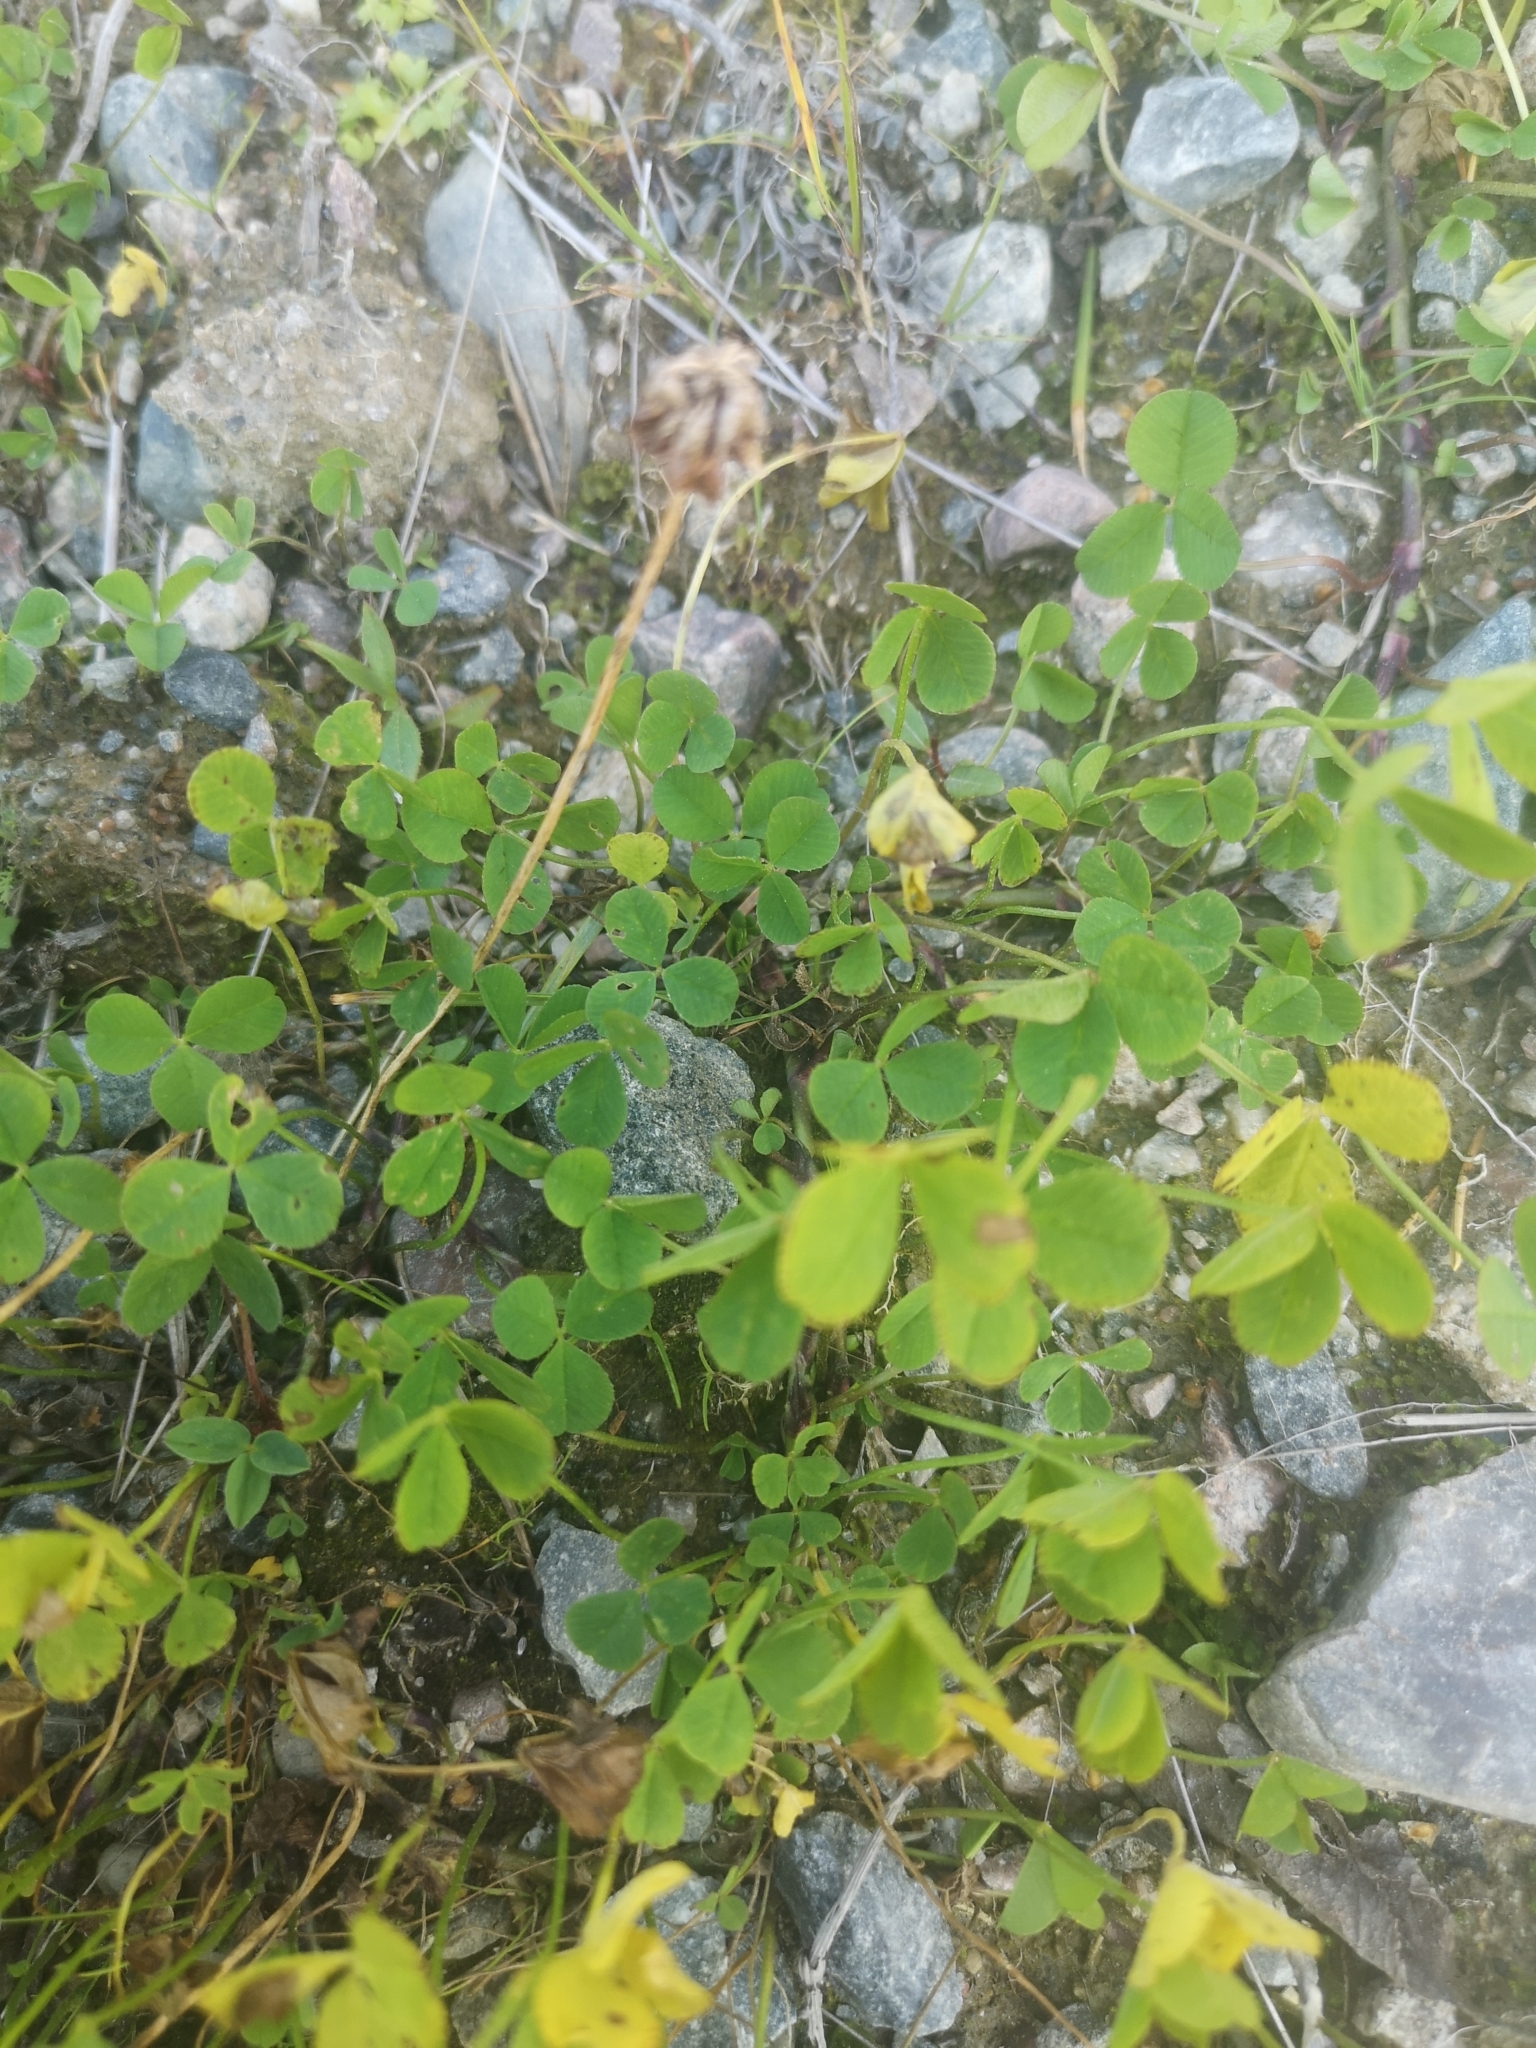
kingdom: Plantae
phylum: Tracheophyta
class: Magnoliopsida
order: Fabales
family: Fabaceae
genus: Trifolium
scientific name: Trifolium repens
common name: White clover
